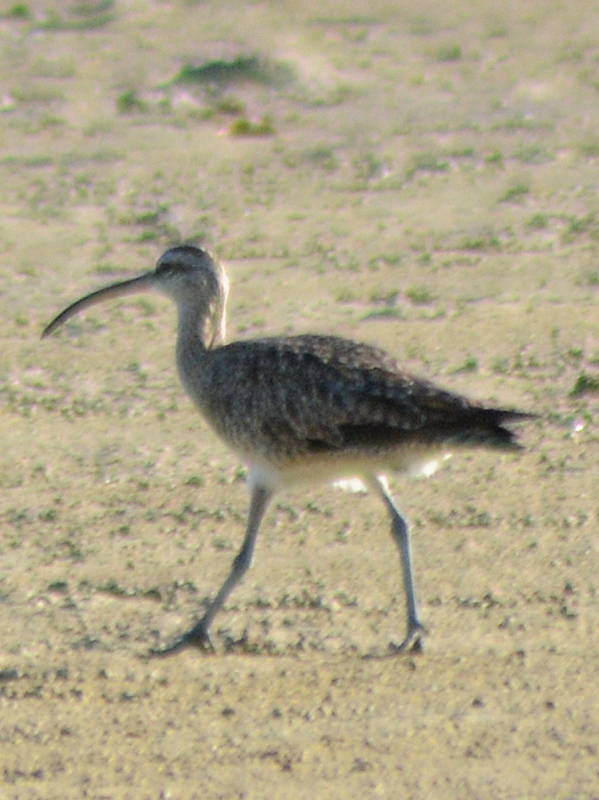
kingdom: Animalia
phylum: Chordata
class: Aves
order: Charadriiformes
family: Scolopacidae
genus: Numenius
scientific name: Numenius phaeopus
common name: Whimbrel
